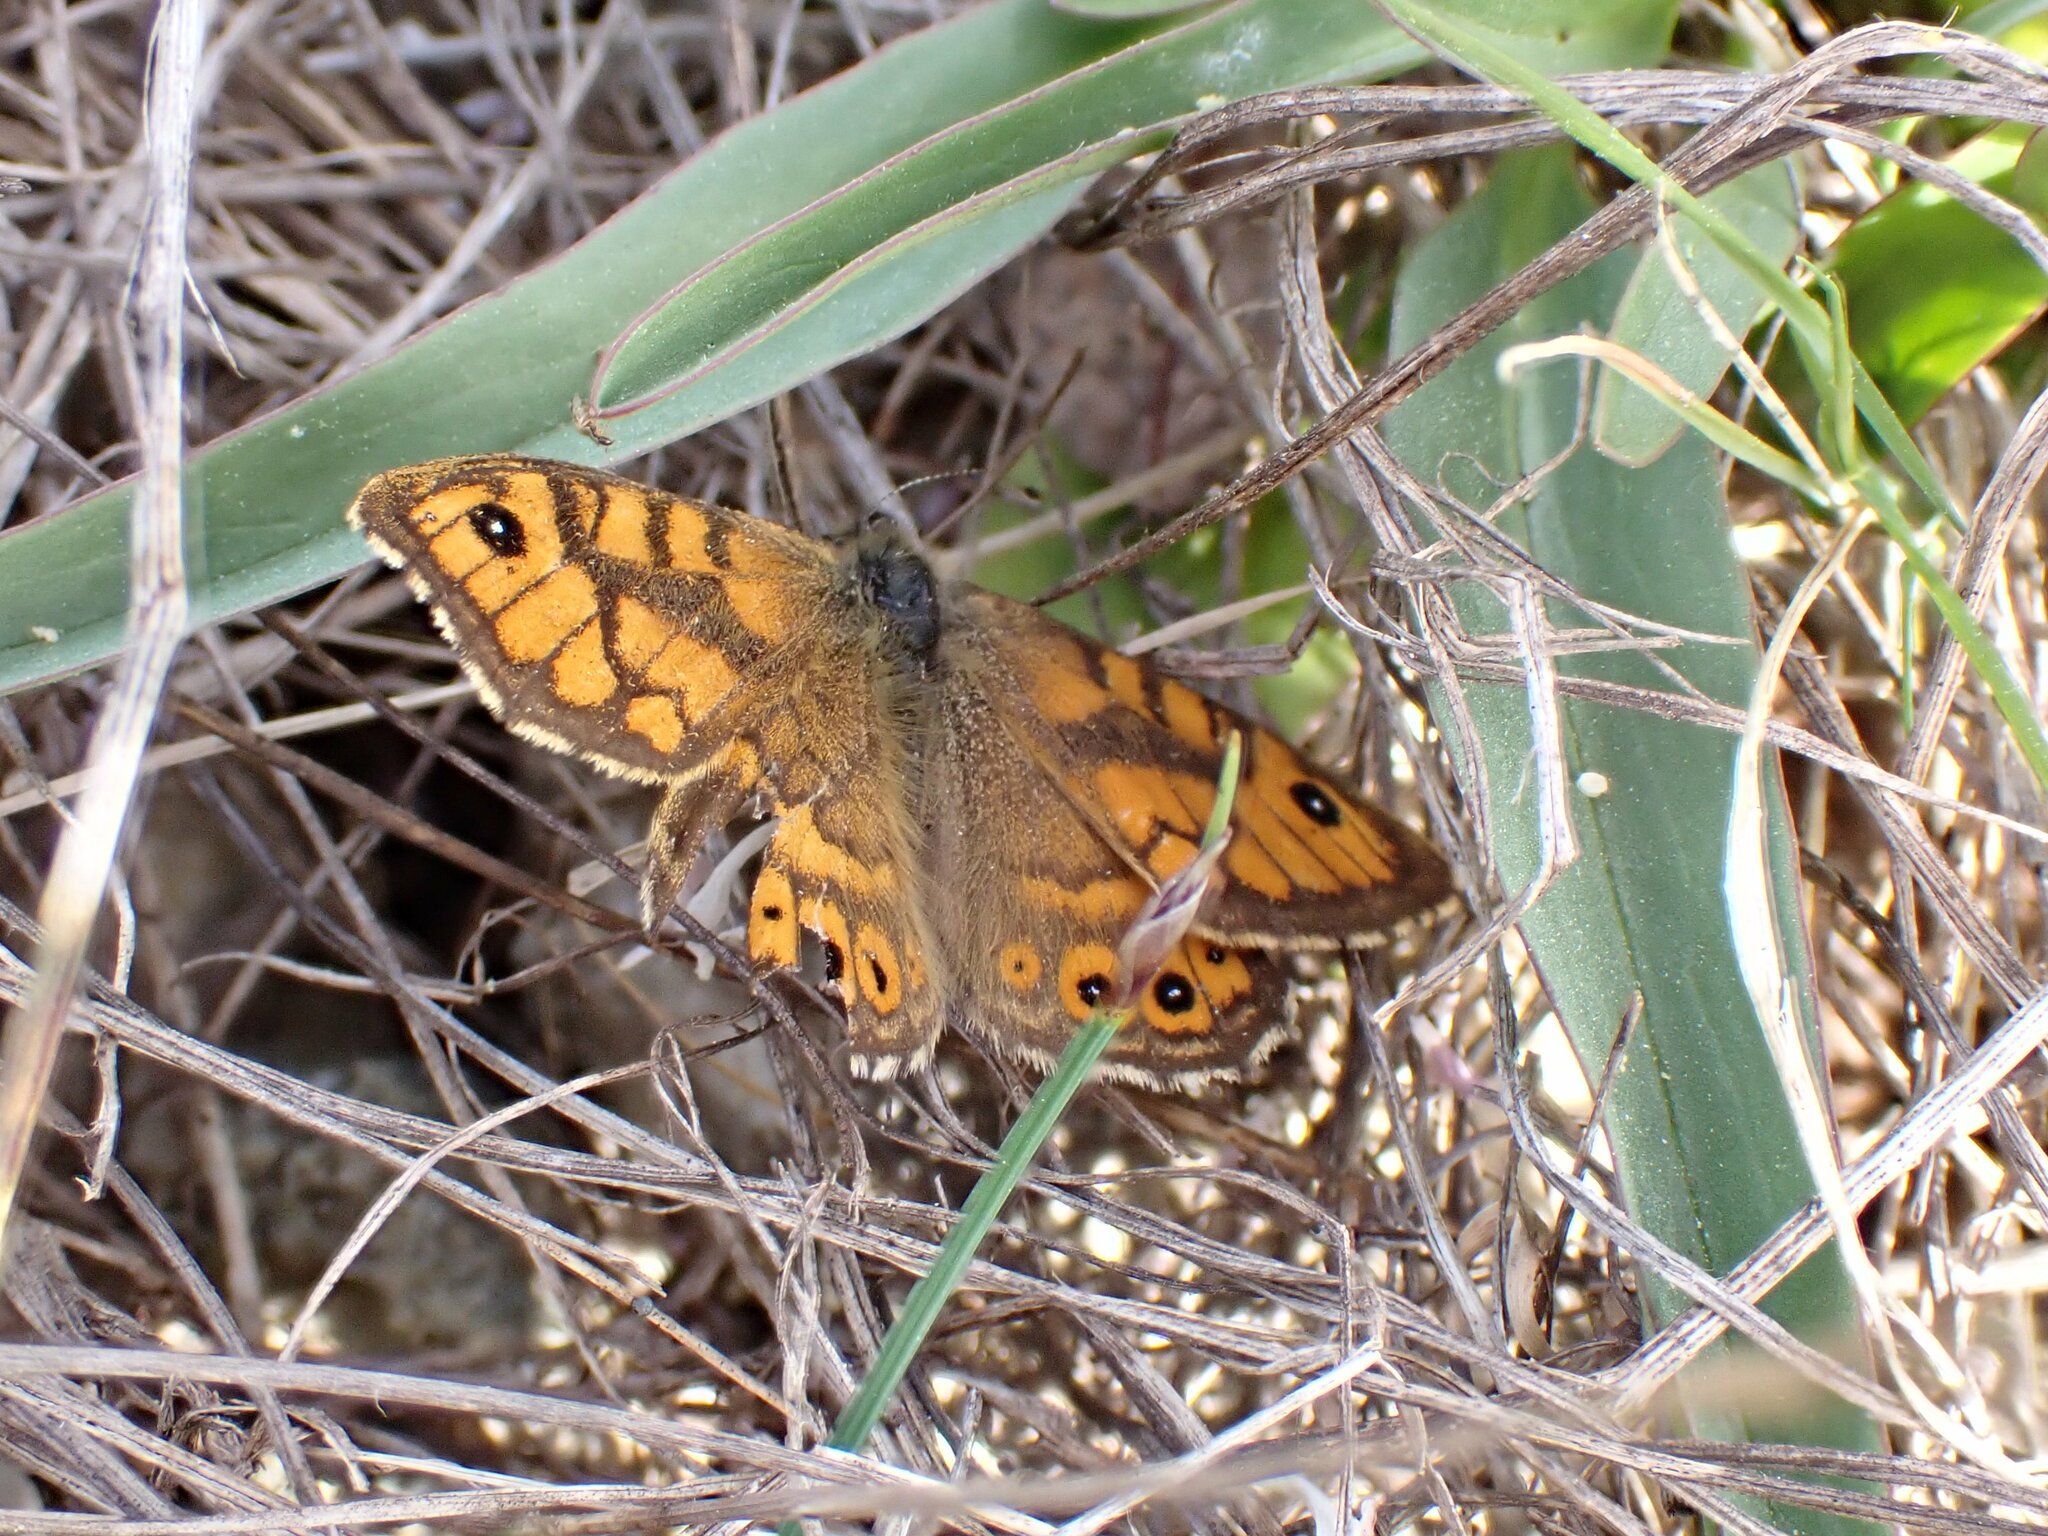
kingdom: Animalia
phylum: Arthropoda
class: Insecta
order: Lepidoptera
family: Nymphalidae
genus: Pararge
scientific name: Pararge Lasiommata megera
